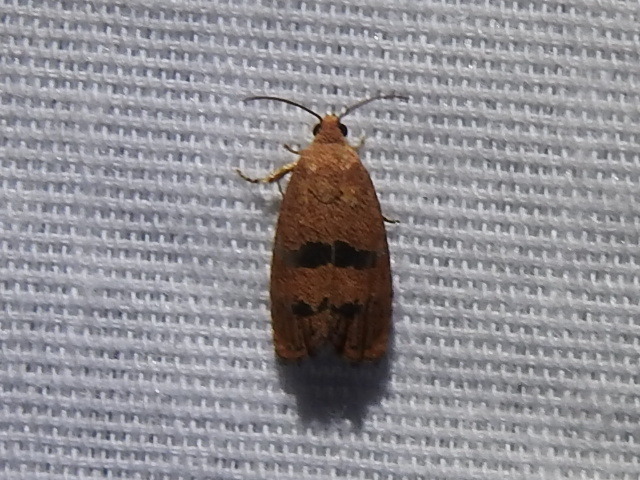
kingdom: Animalia
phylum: Arthropoda
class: Insecta
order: Lepidoptera
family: Tortricidae
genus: Cydia
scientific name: Cydia latiferreana
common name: Filbertworm moth
